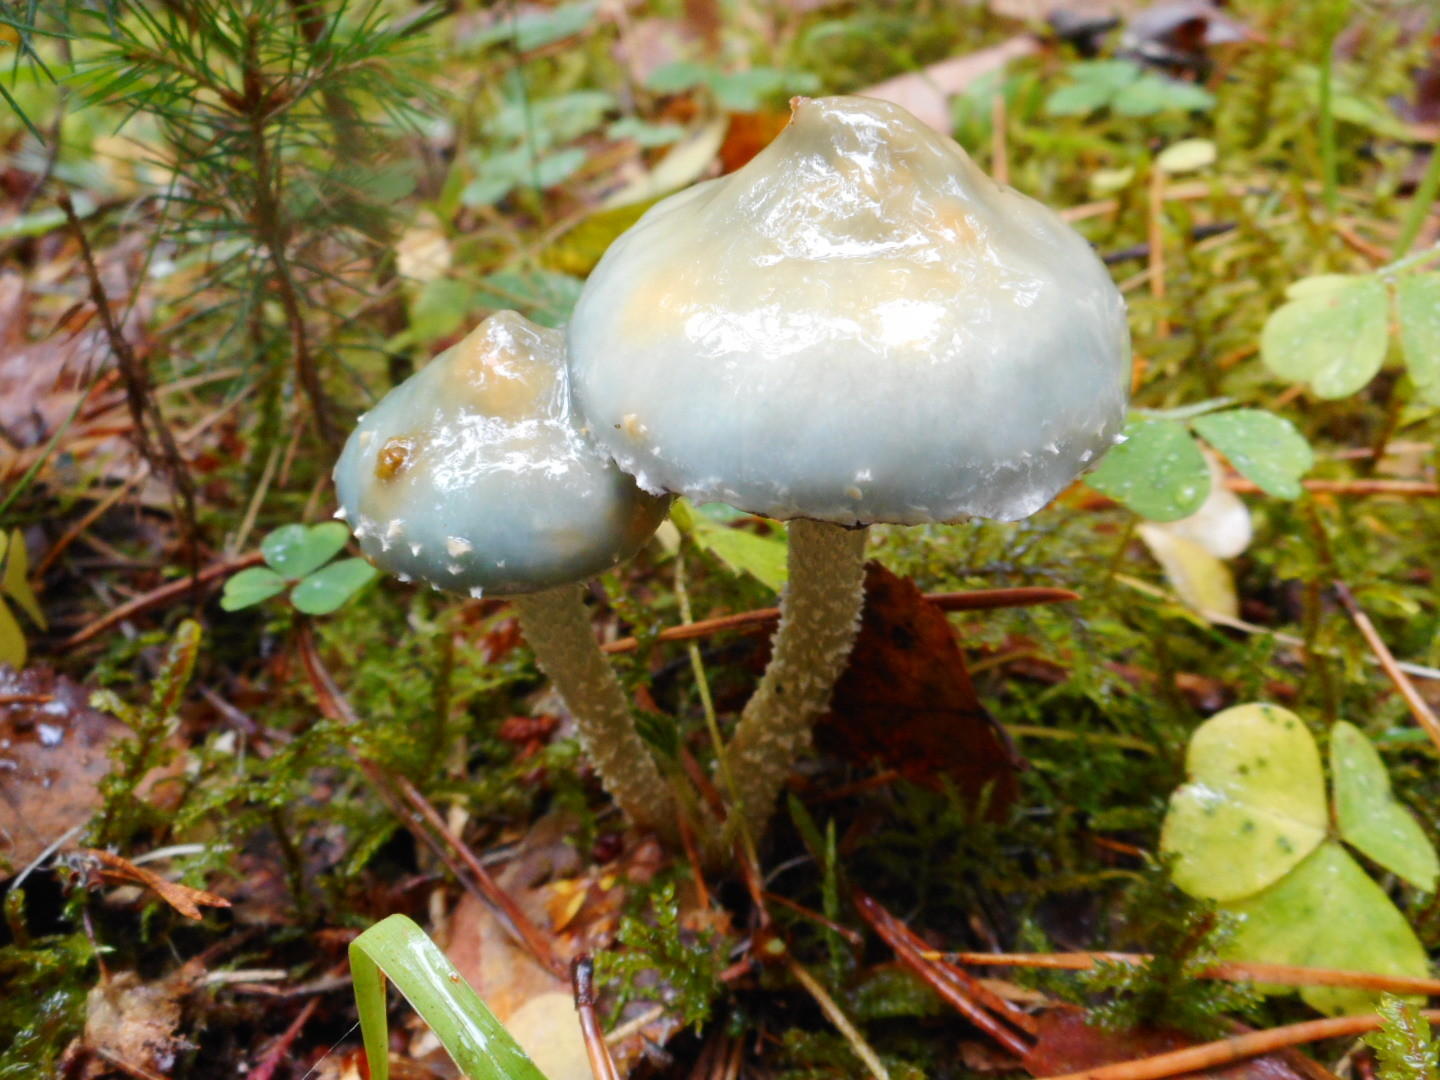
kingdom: Fungi
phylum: Basidiomycota
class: Agaricomycetes
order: Agaricales
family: Strophariaceae
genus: Stropharia
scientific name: Stropharia aeruginosa
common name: Verdigris roundhead
